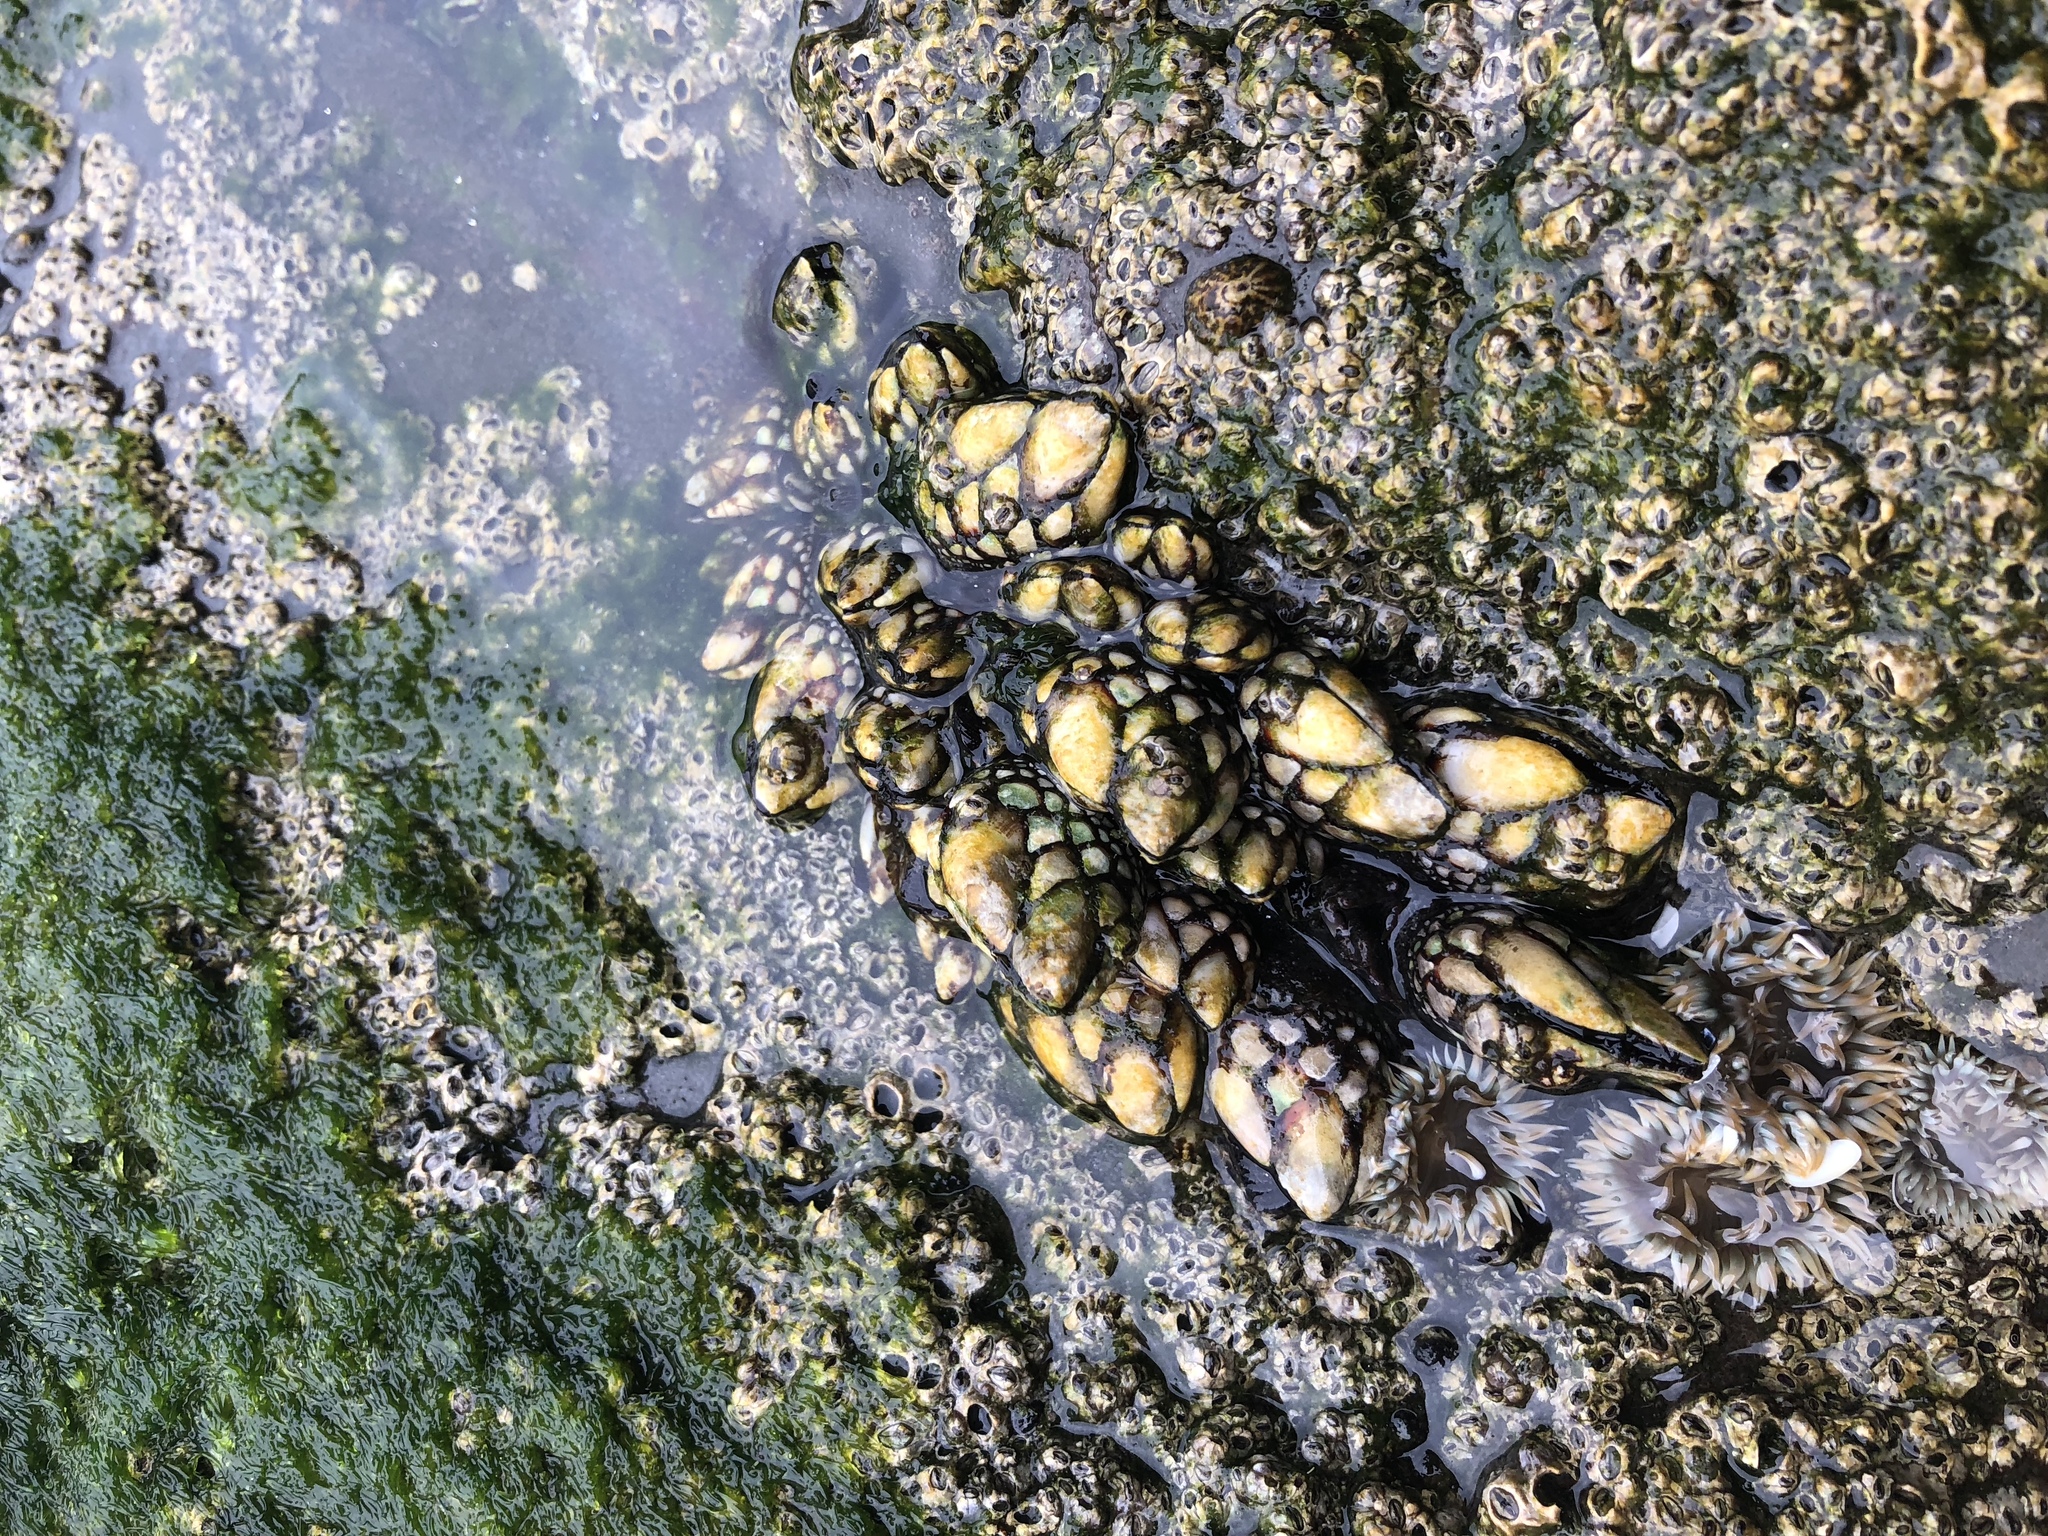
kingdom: Animalia
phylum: Arthropoda
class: Maxillopoda
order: Pedunculata
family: Pollicipedidae
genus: Pollicipes
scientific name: Pollicipes polymerus
